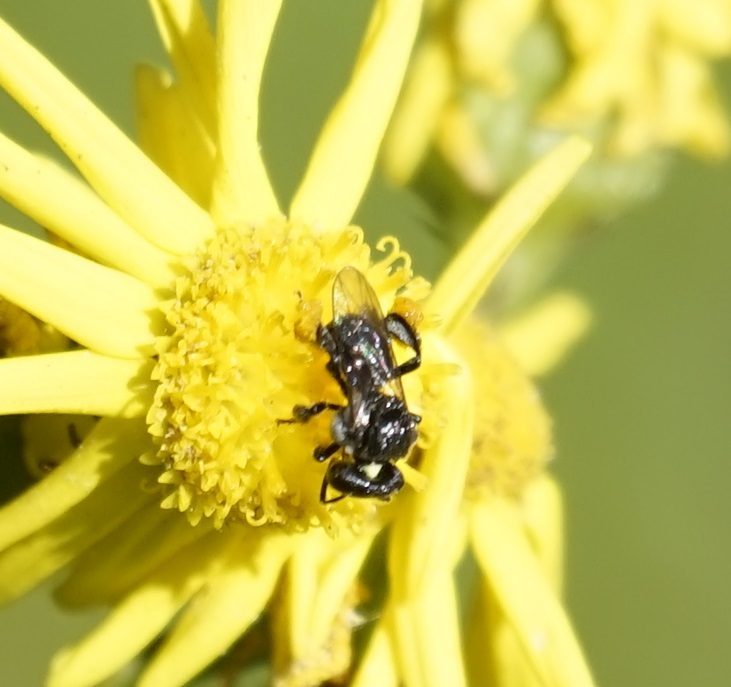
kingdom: Animalia
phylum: Arthropoda
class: Insecta
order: Hymenoptera
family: Apidae
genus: Tetragonula
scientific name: Tetragonula carbonaria
